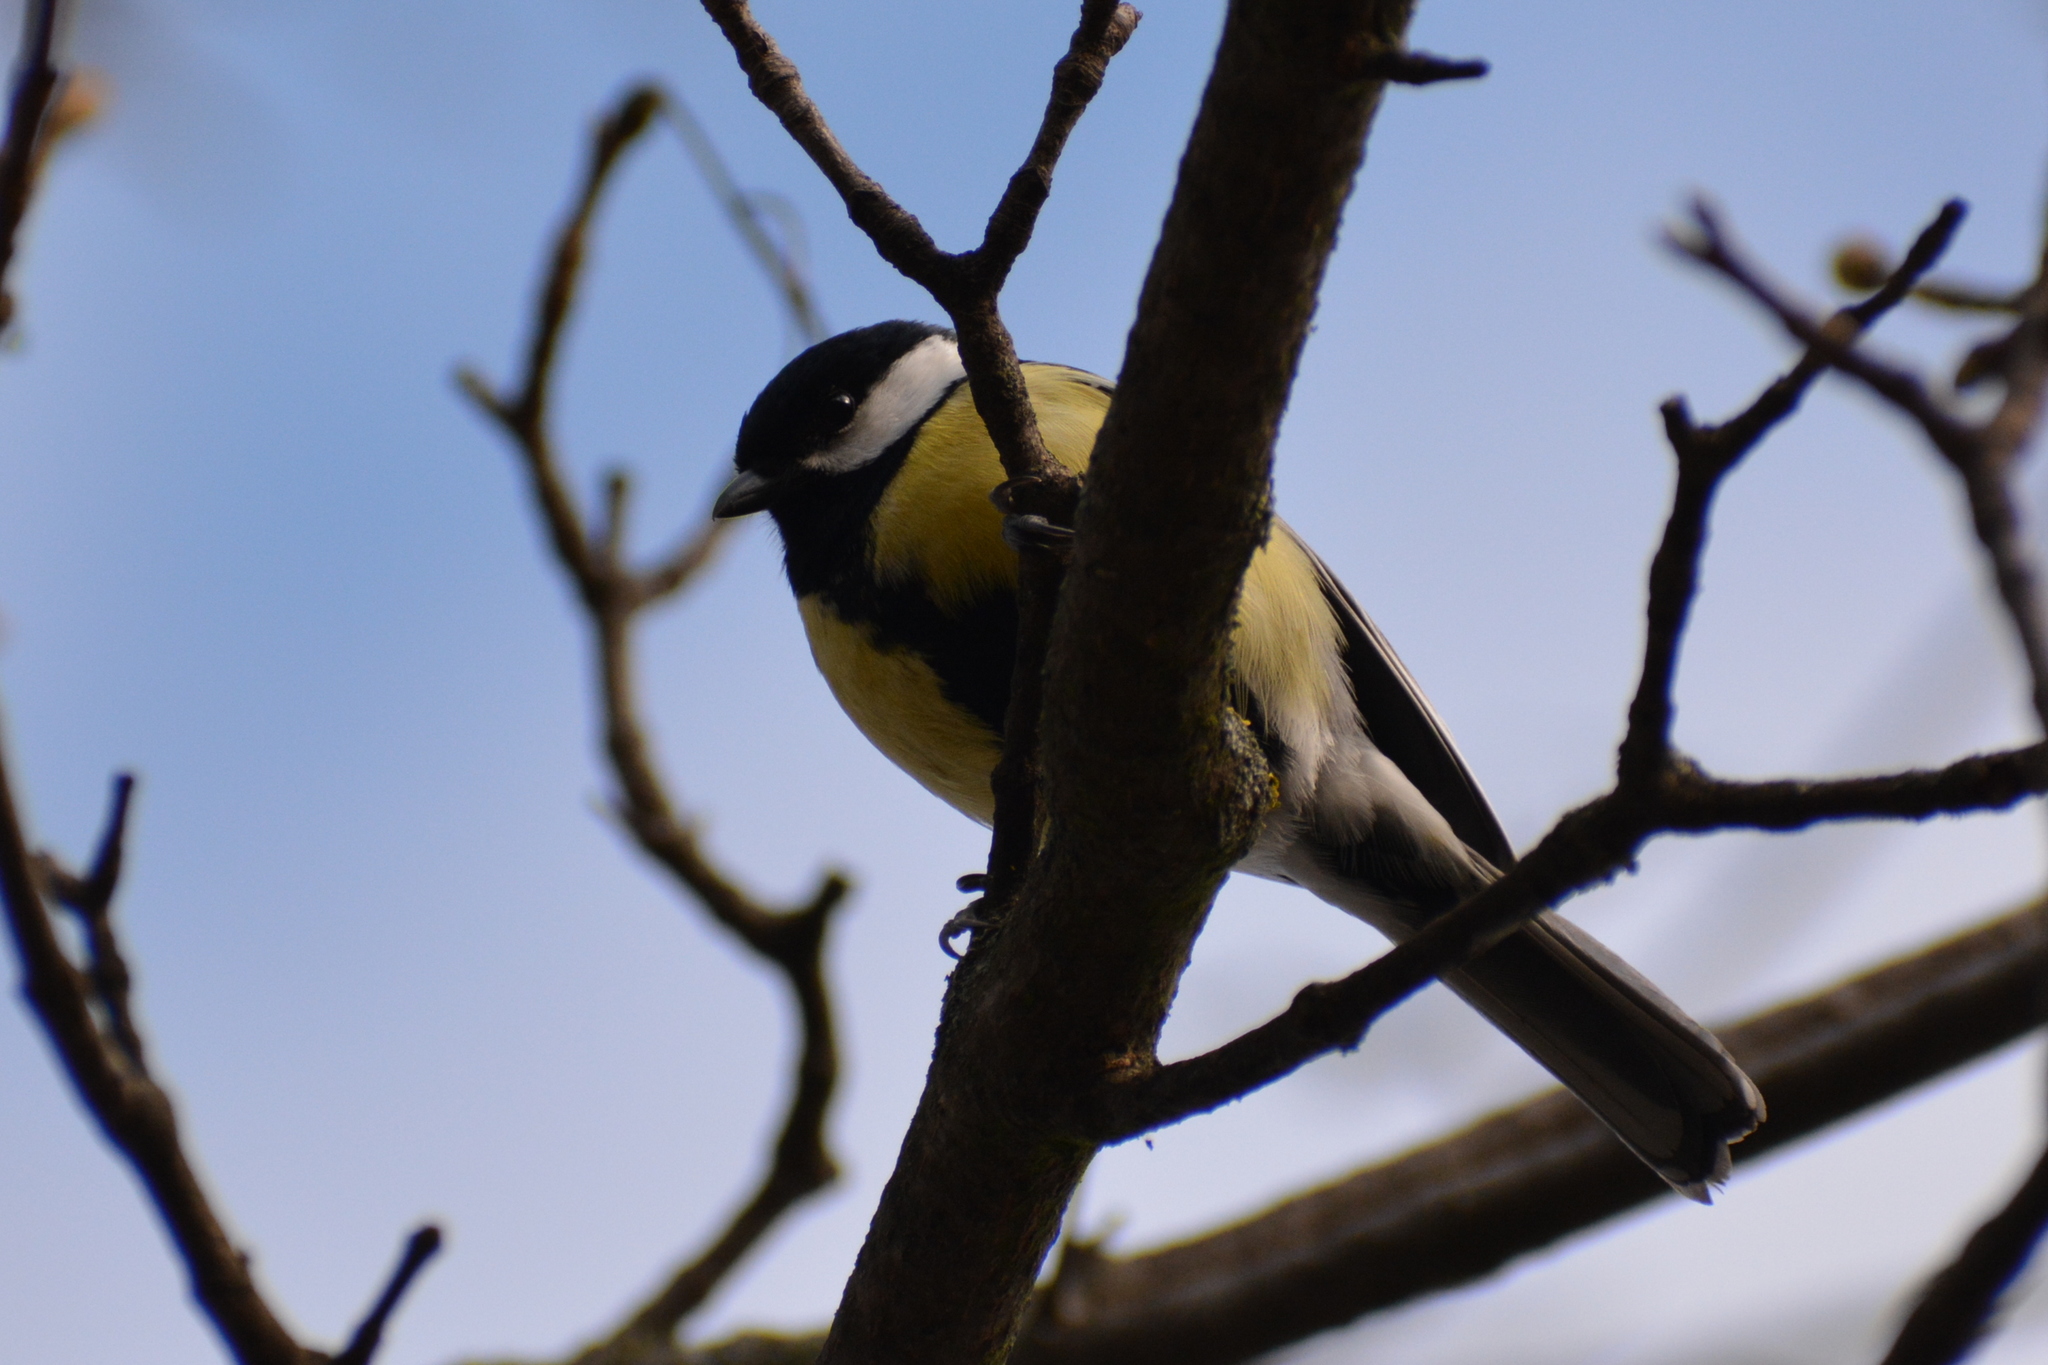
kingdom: Animalia
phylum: Chordata
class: Aves
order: Passeriformes
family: Paridae
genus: Parus
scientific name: Parus major
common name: Great tit
